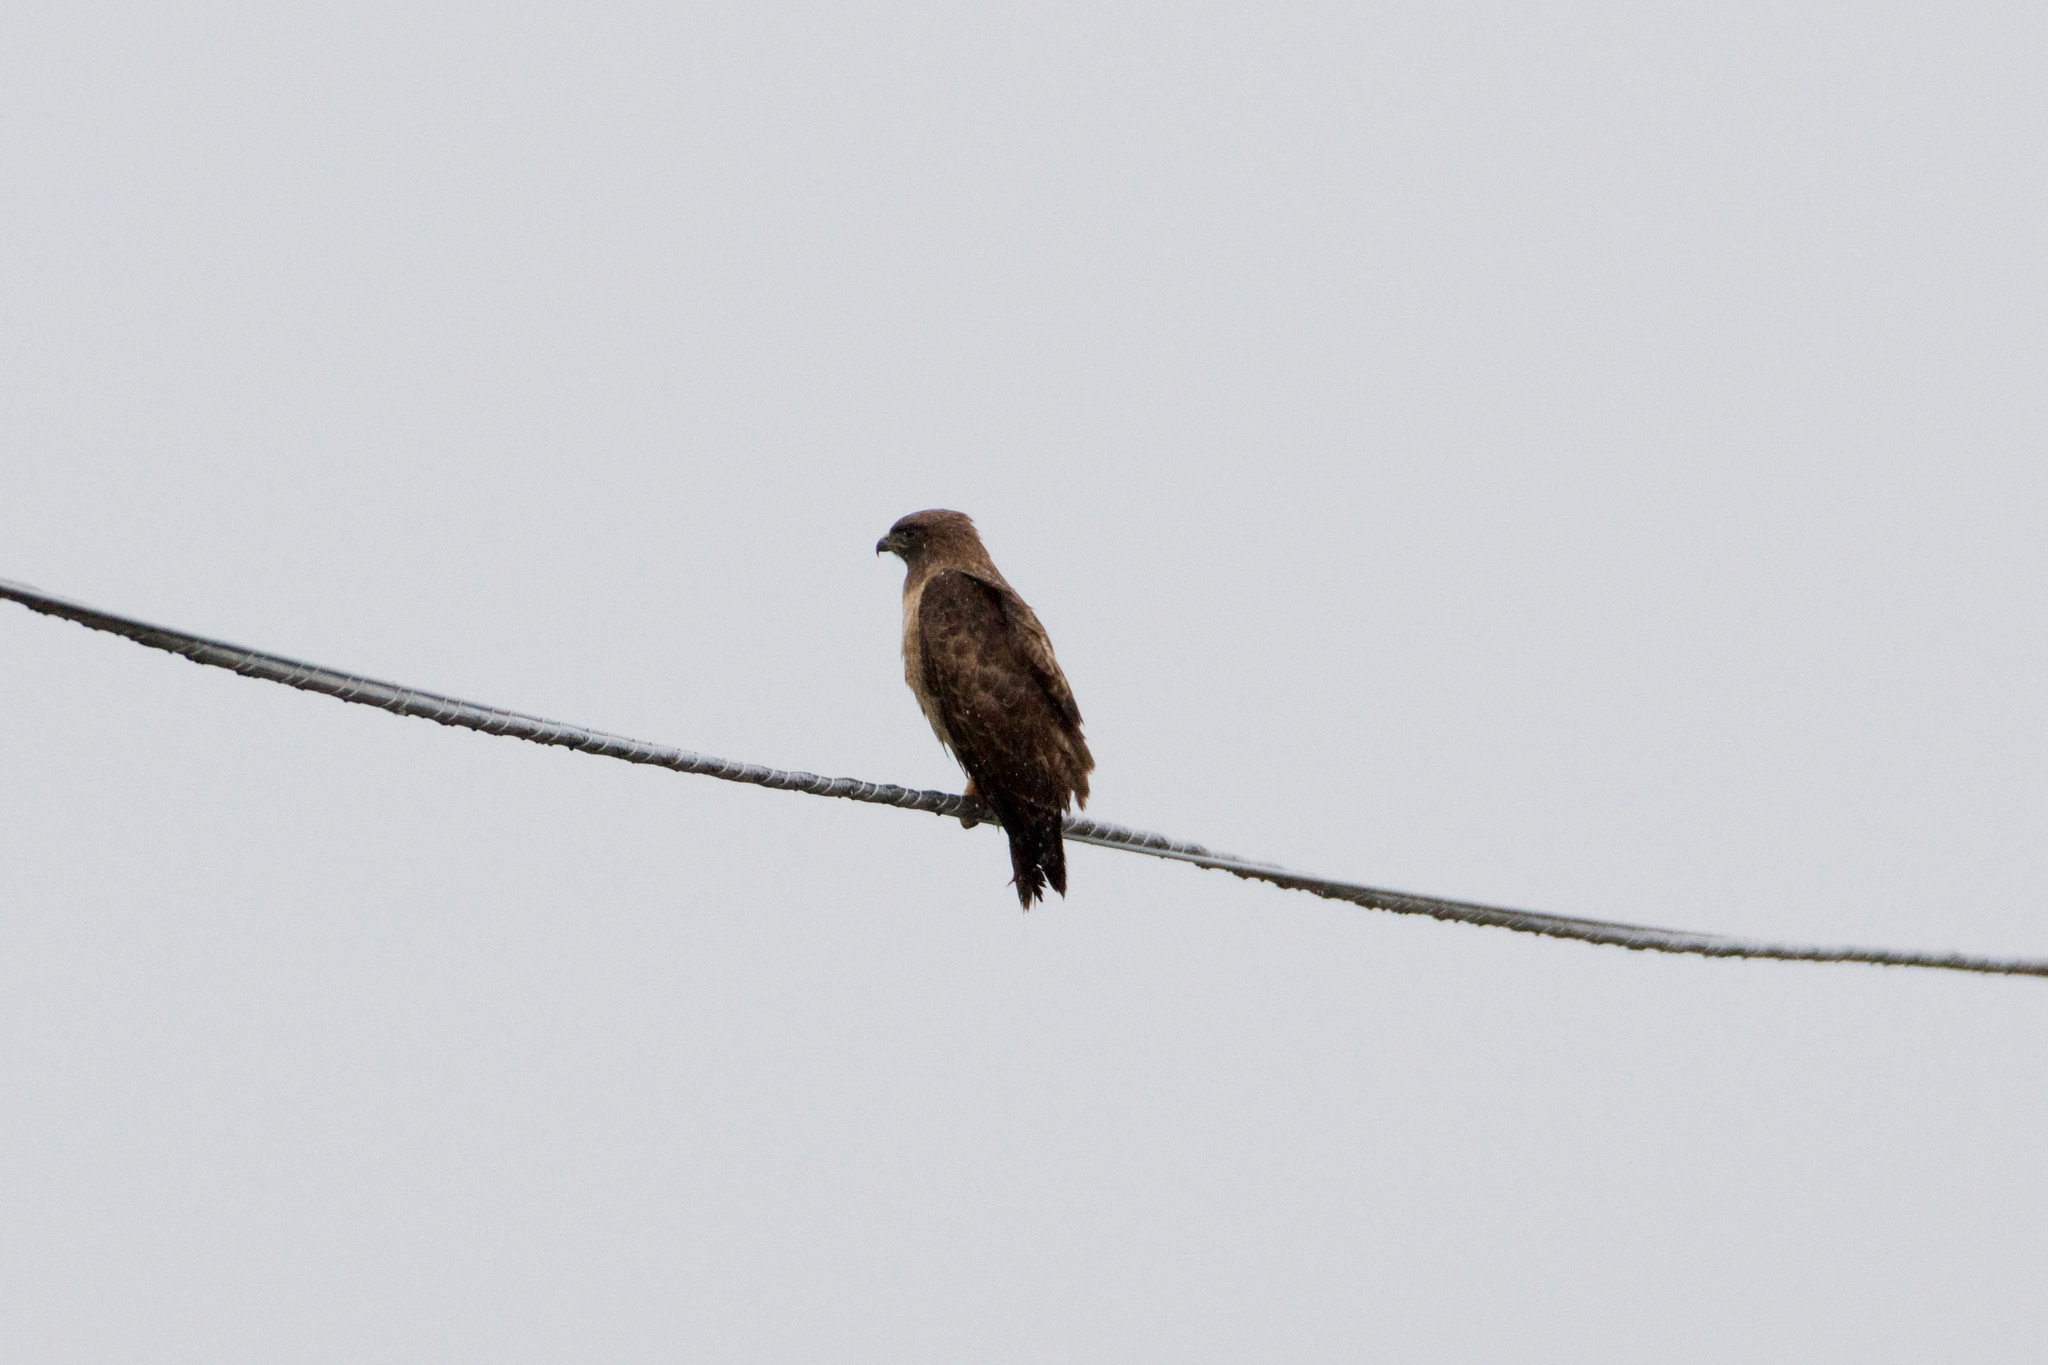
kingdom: Animalia
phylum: Chordata
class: Aves
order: Accipitriformes
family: Accipitridae
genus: Buteo
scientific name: Buteo jamaicensis
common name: Red-tailed hawk
